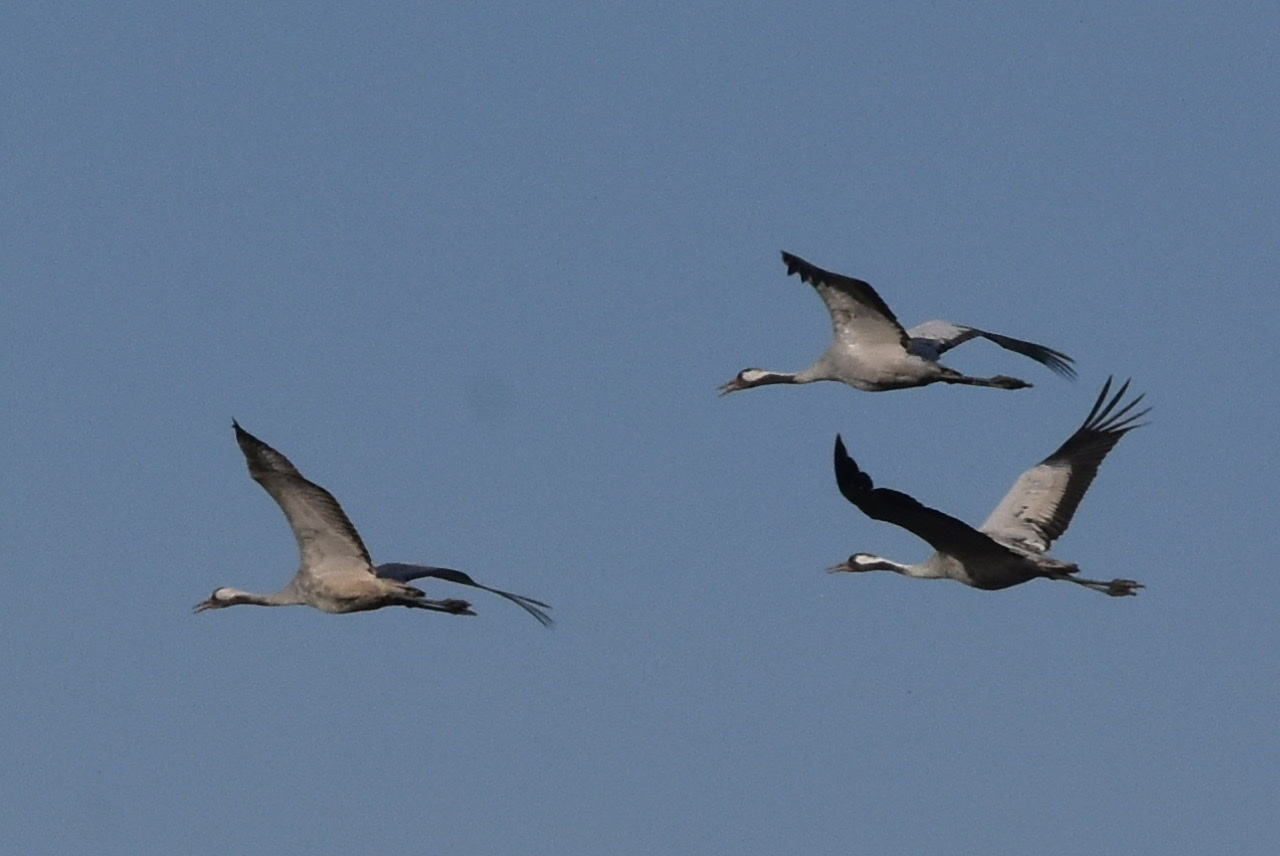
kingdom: Animalia
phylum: Chordata
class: Aves
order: Gruiformes
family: Gruidae
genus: Grus
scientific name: Grus grus
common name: Common crane
